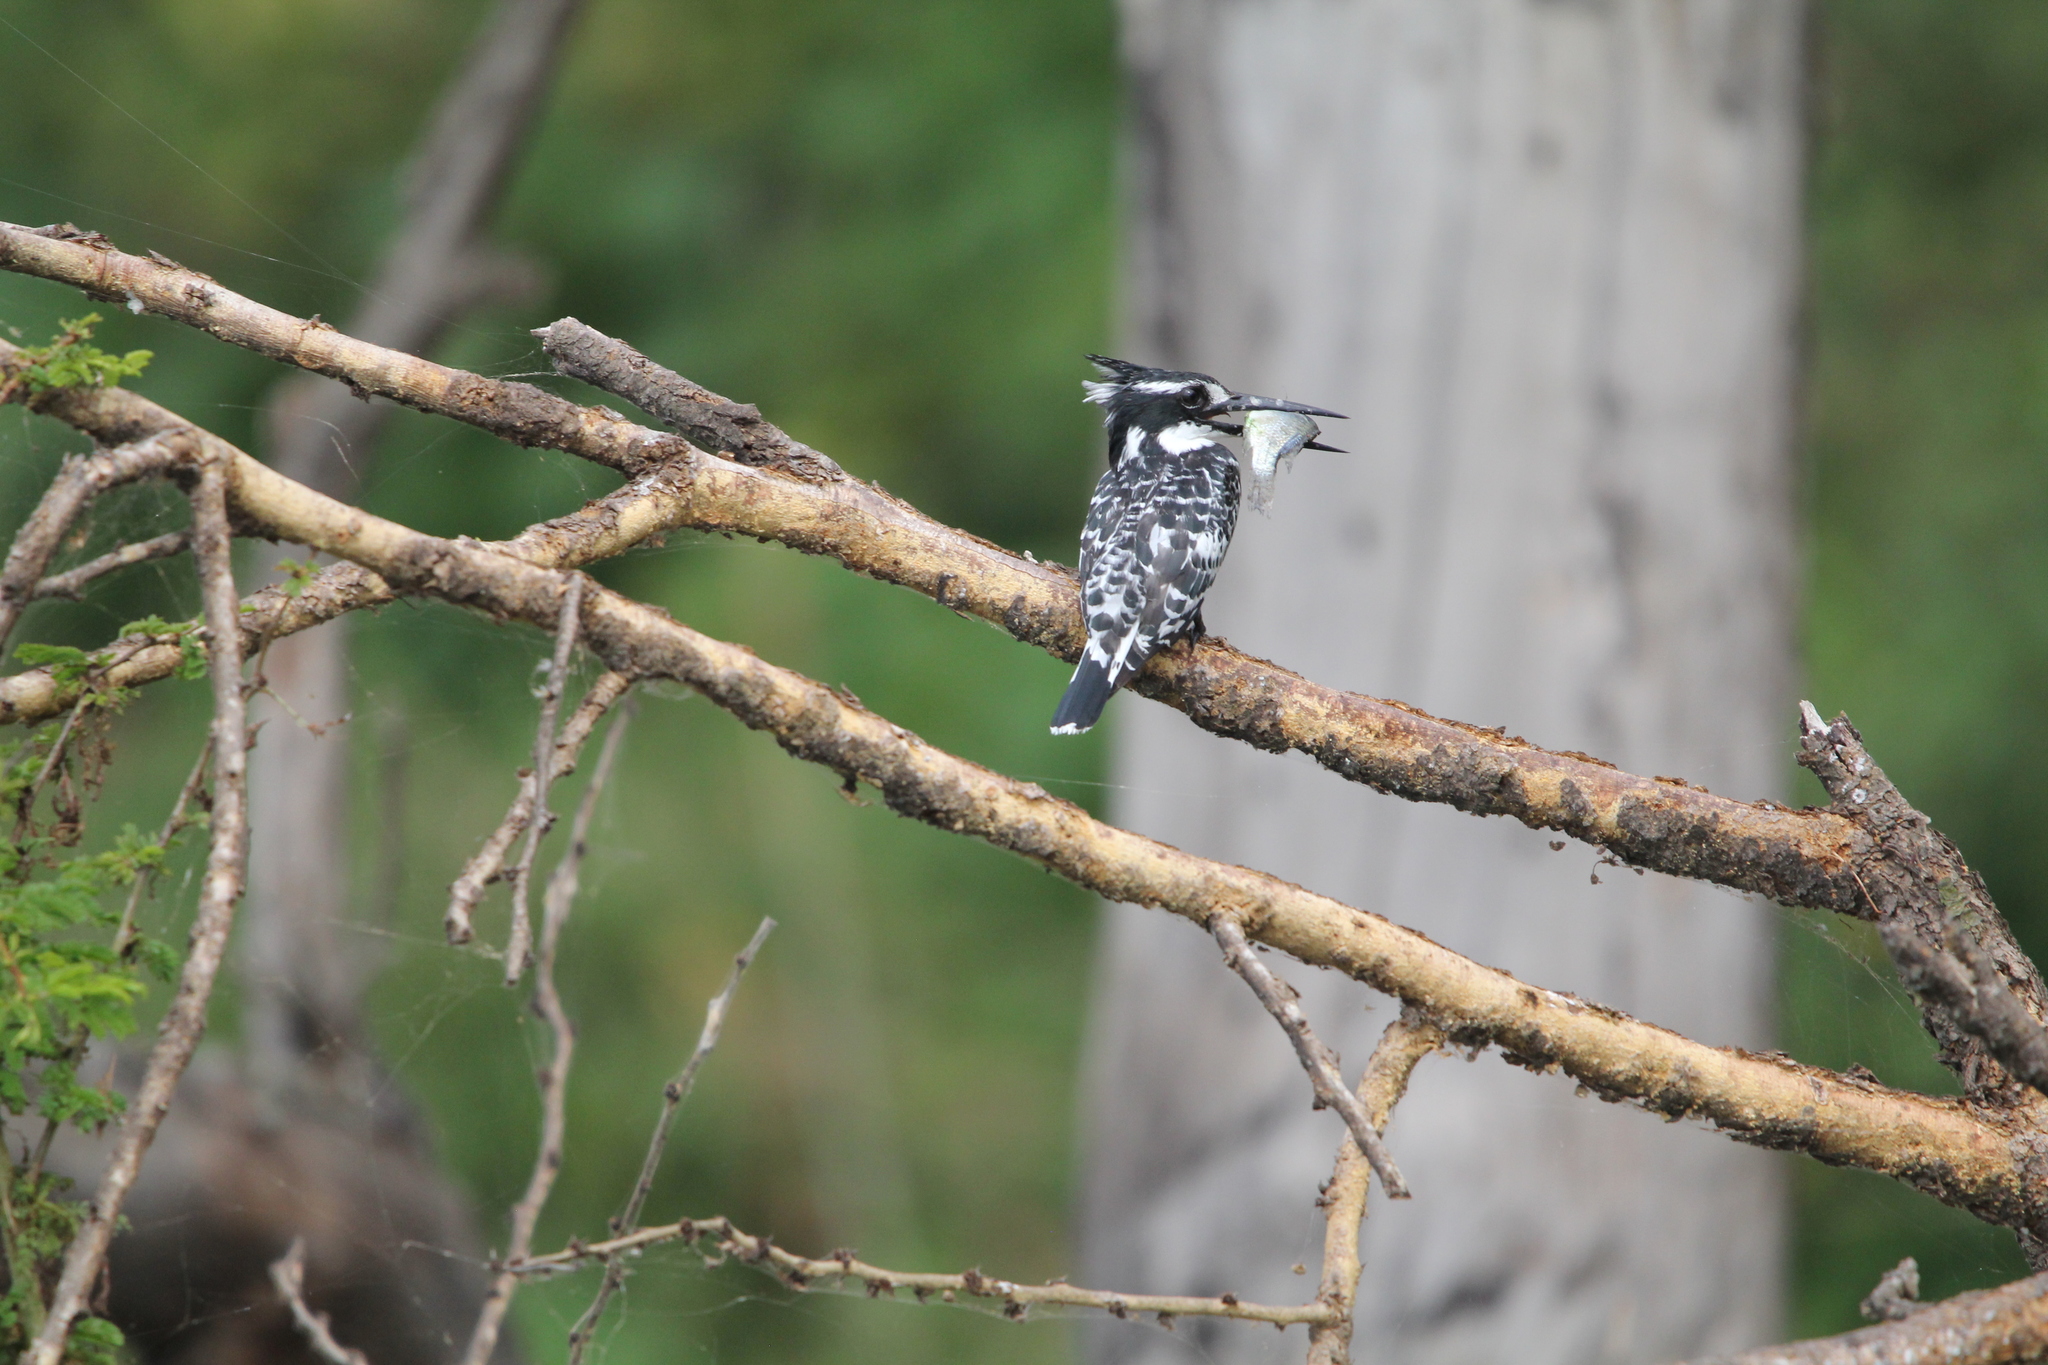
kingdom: Animalia
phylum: Chordata
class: Aves
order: Coraciiformes
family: Alcedinidae
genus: Ceryle
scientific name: Ceryle rudis
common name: Pied kingfisher
